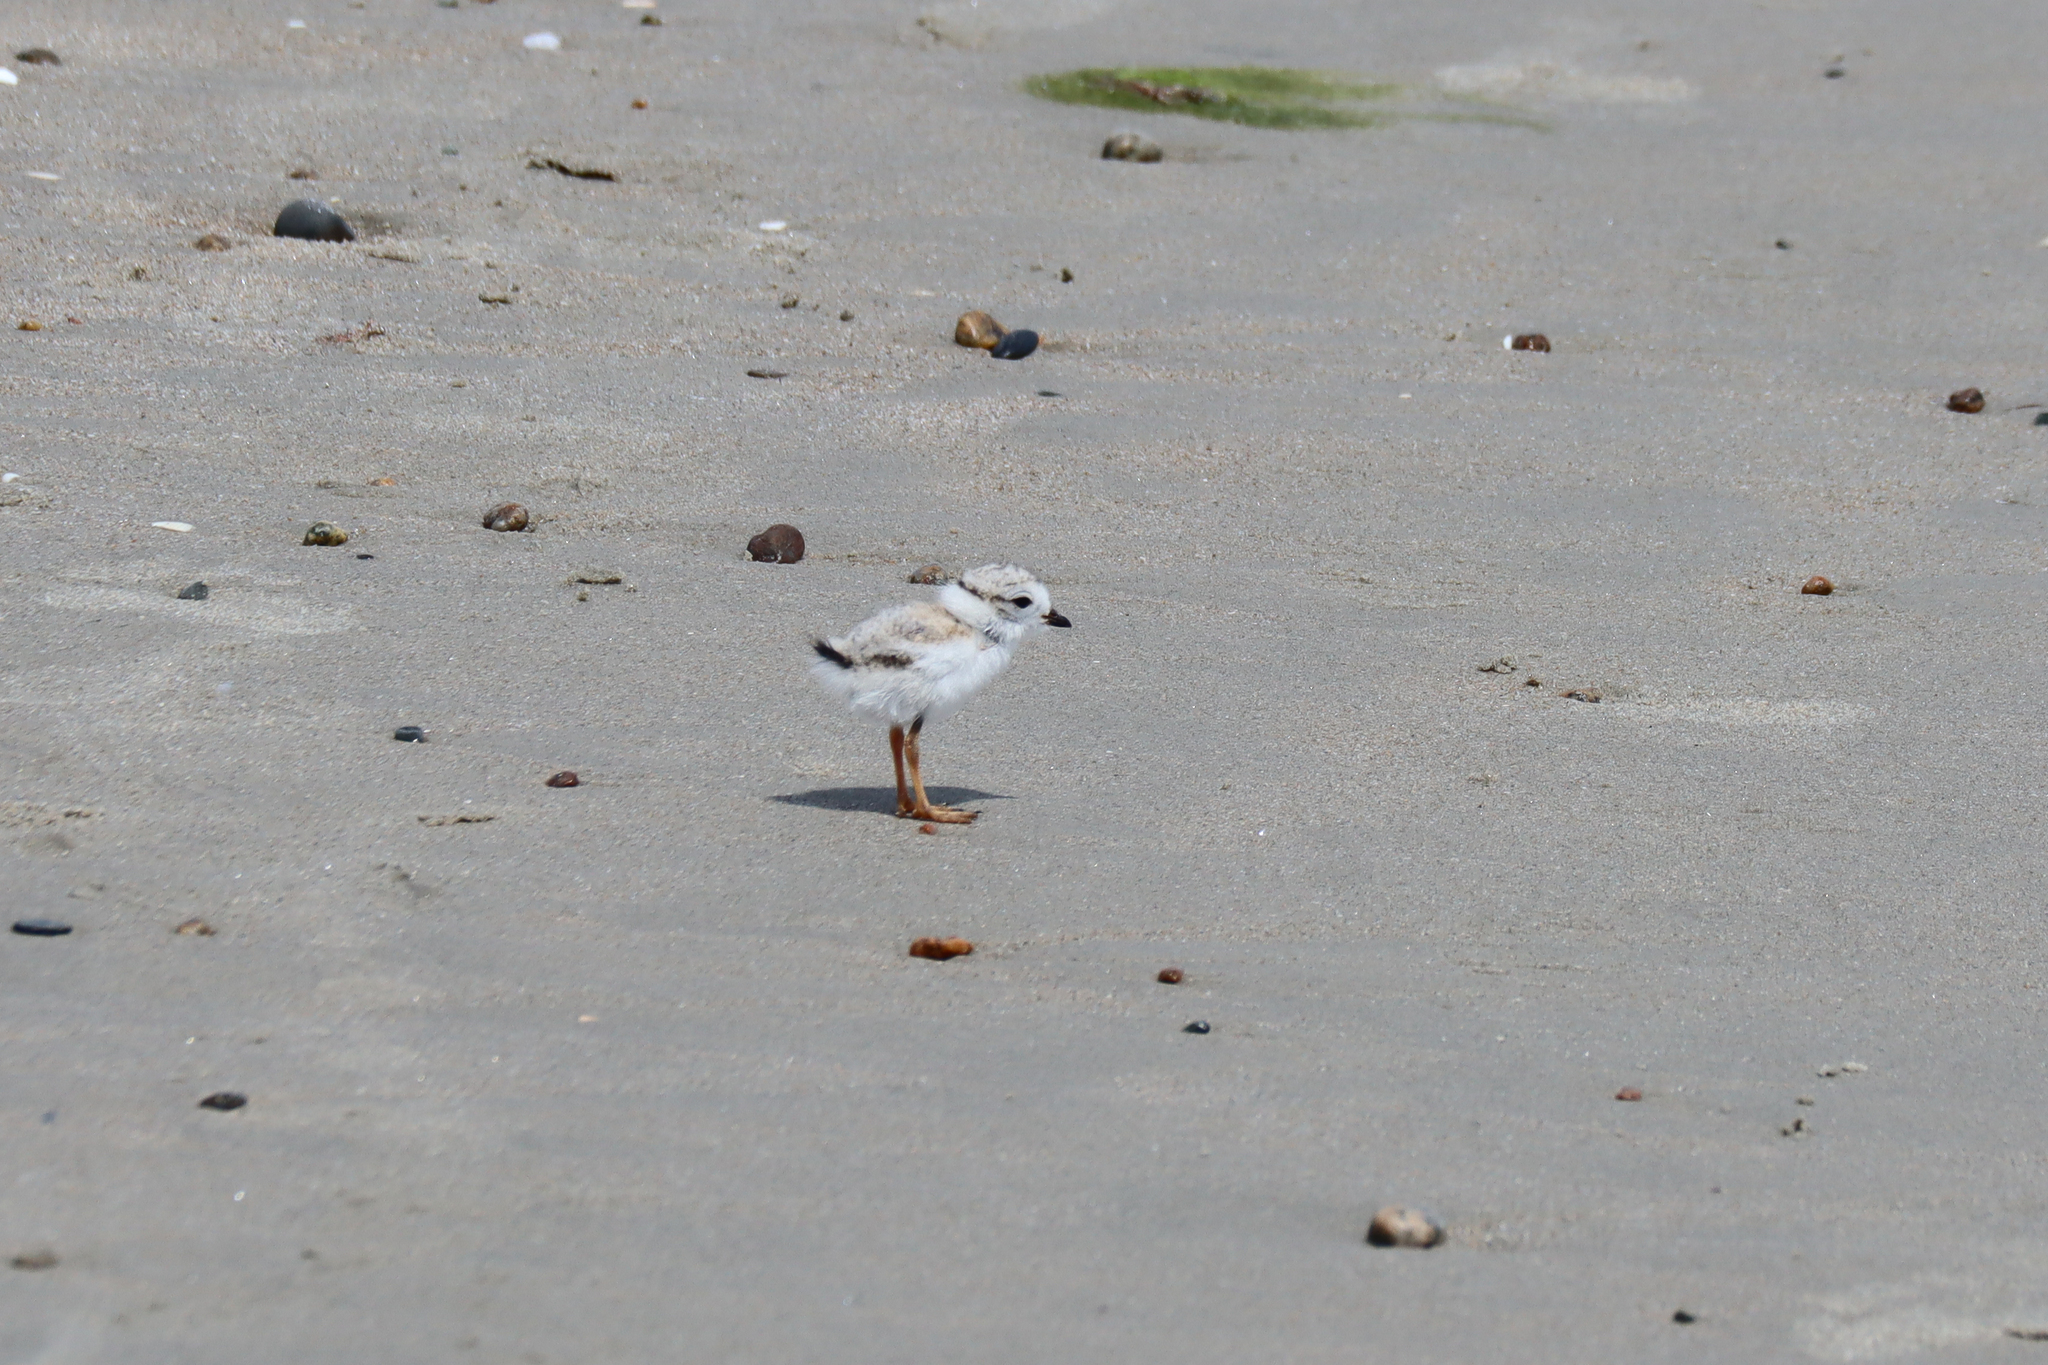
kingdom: Animalia
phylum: Chordata
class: Aves
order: Charadriiformes
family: Charadriidae
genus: Charadrius
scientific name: Charadrius melodus
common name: Piping plover
